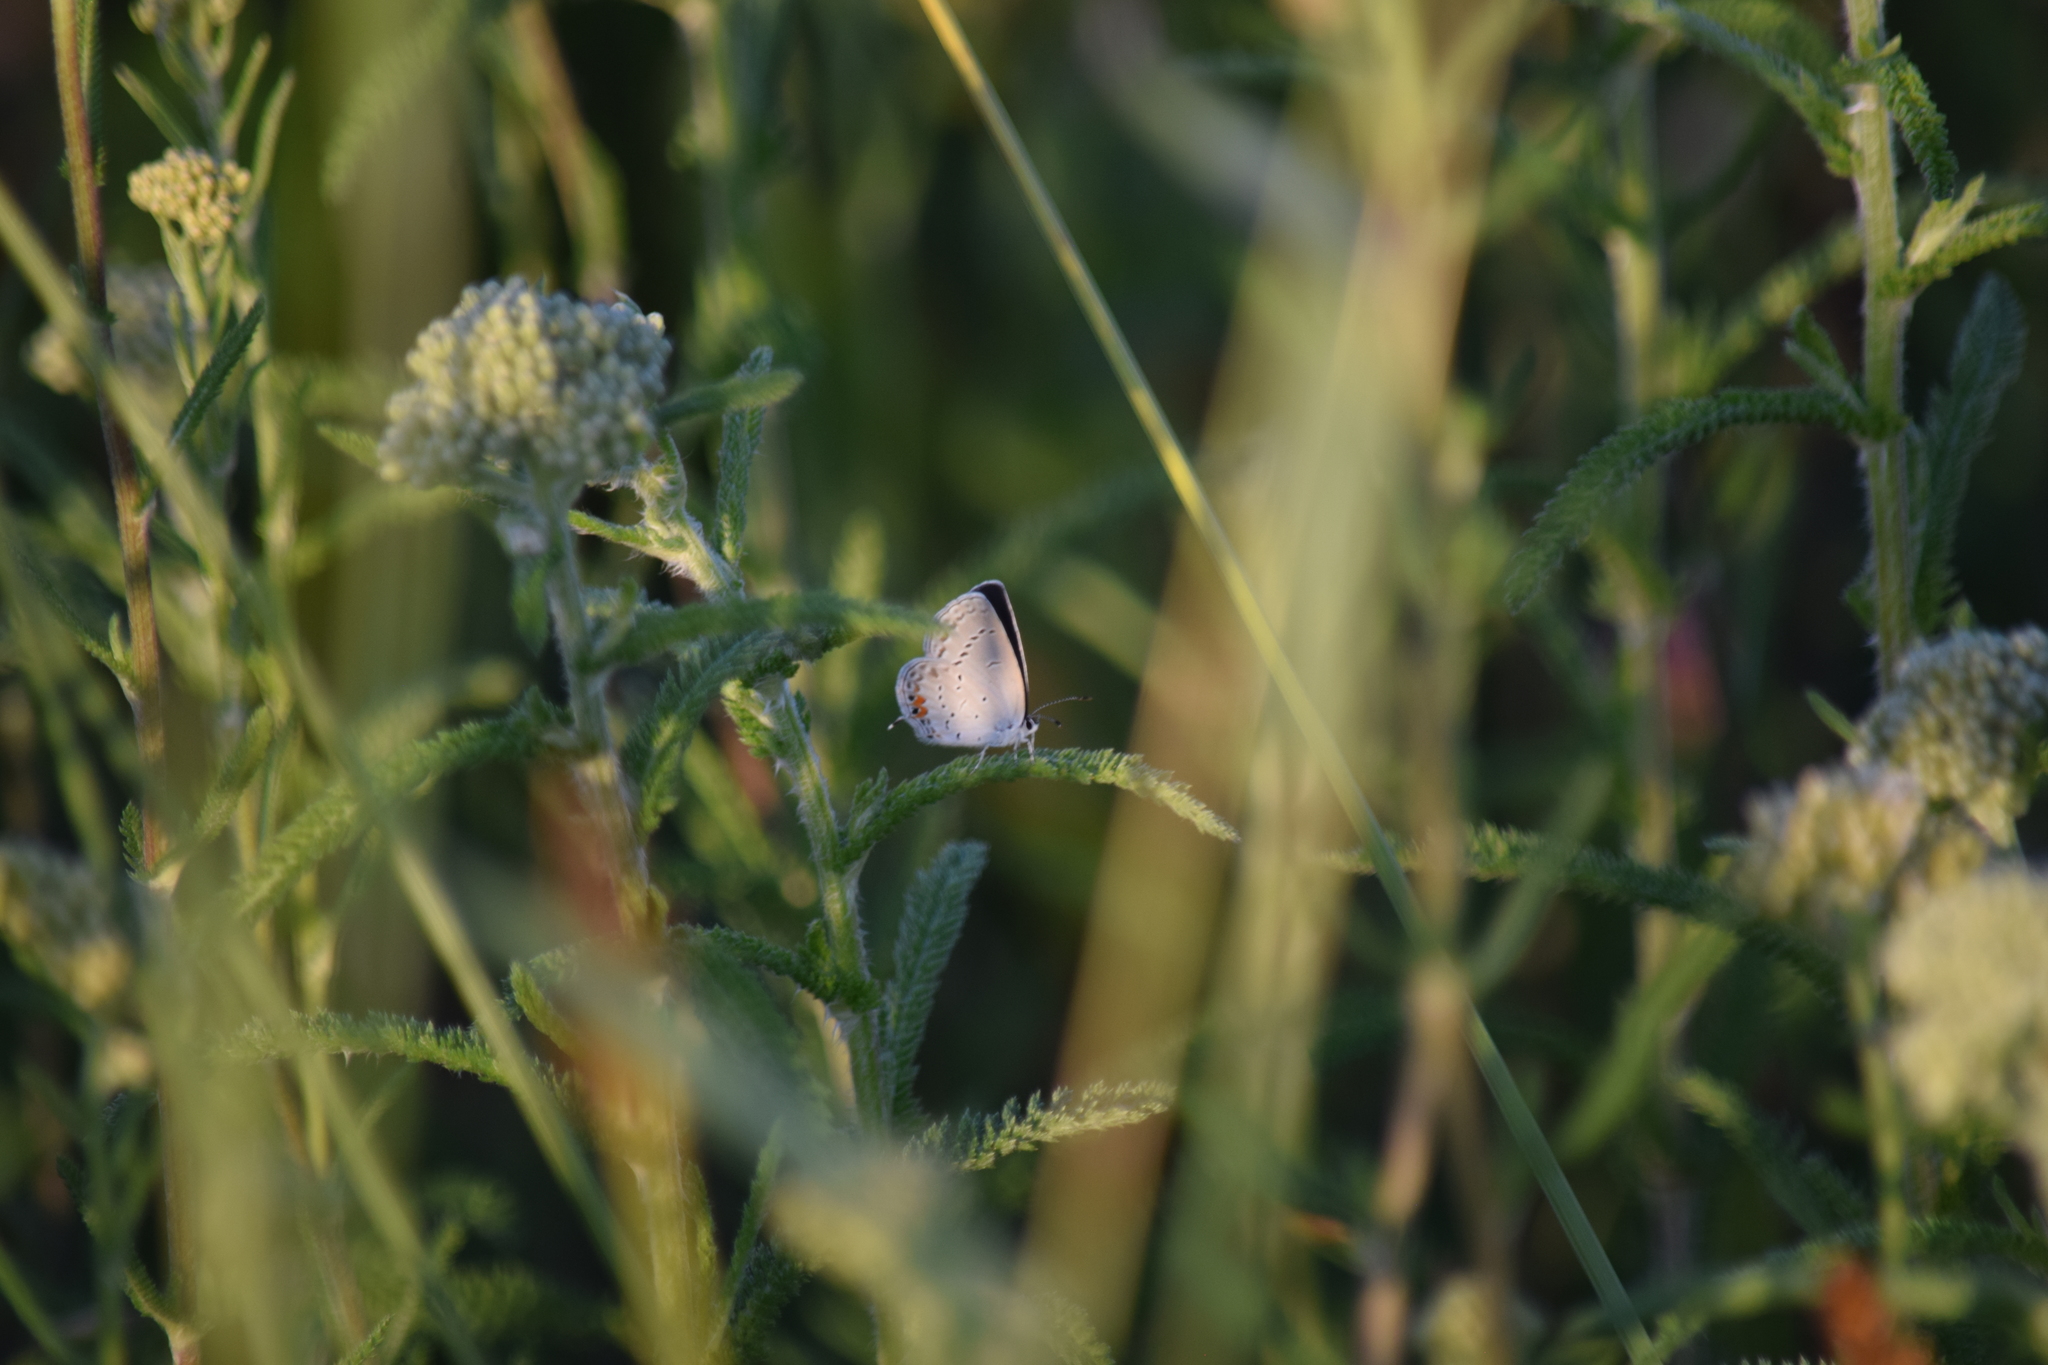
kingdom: Animalia
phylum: Arthropoda
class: Insecta
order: Lepidoptera
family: Lycaenidae
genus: Elkalyce
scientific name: Elkalyce comyntas
